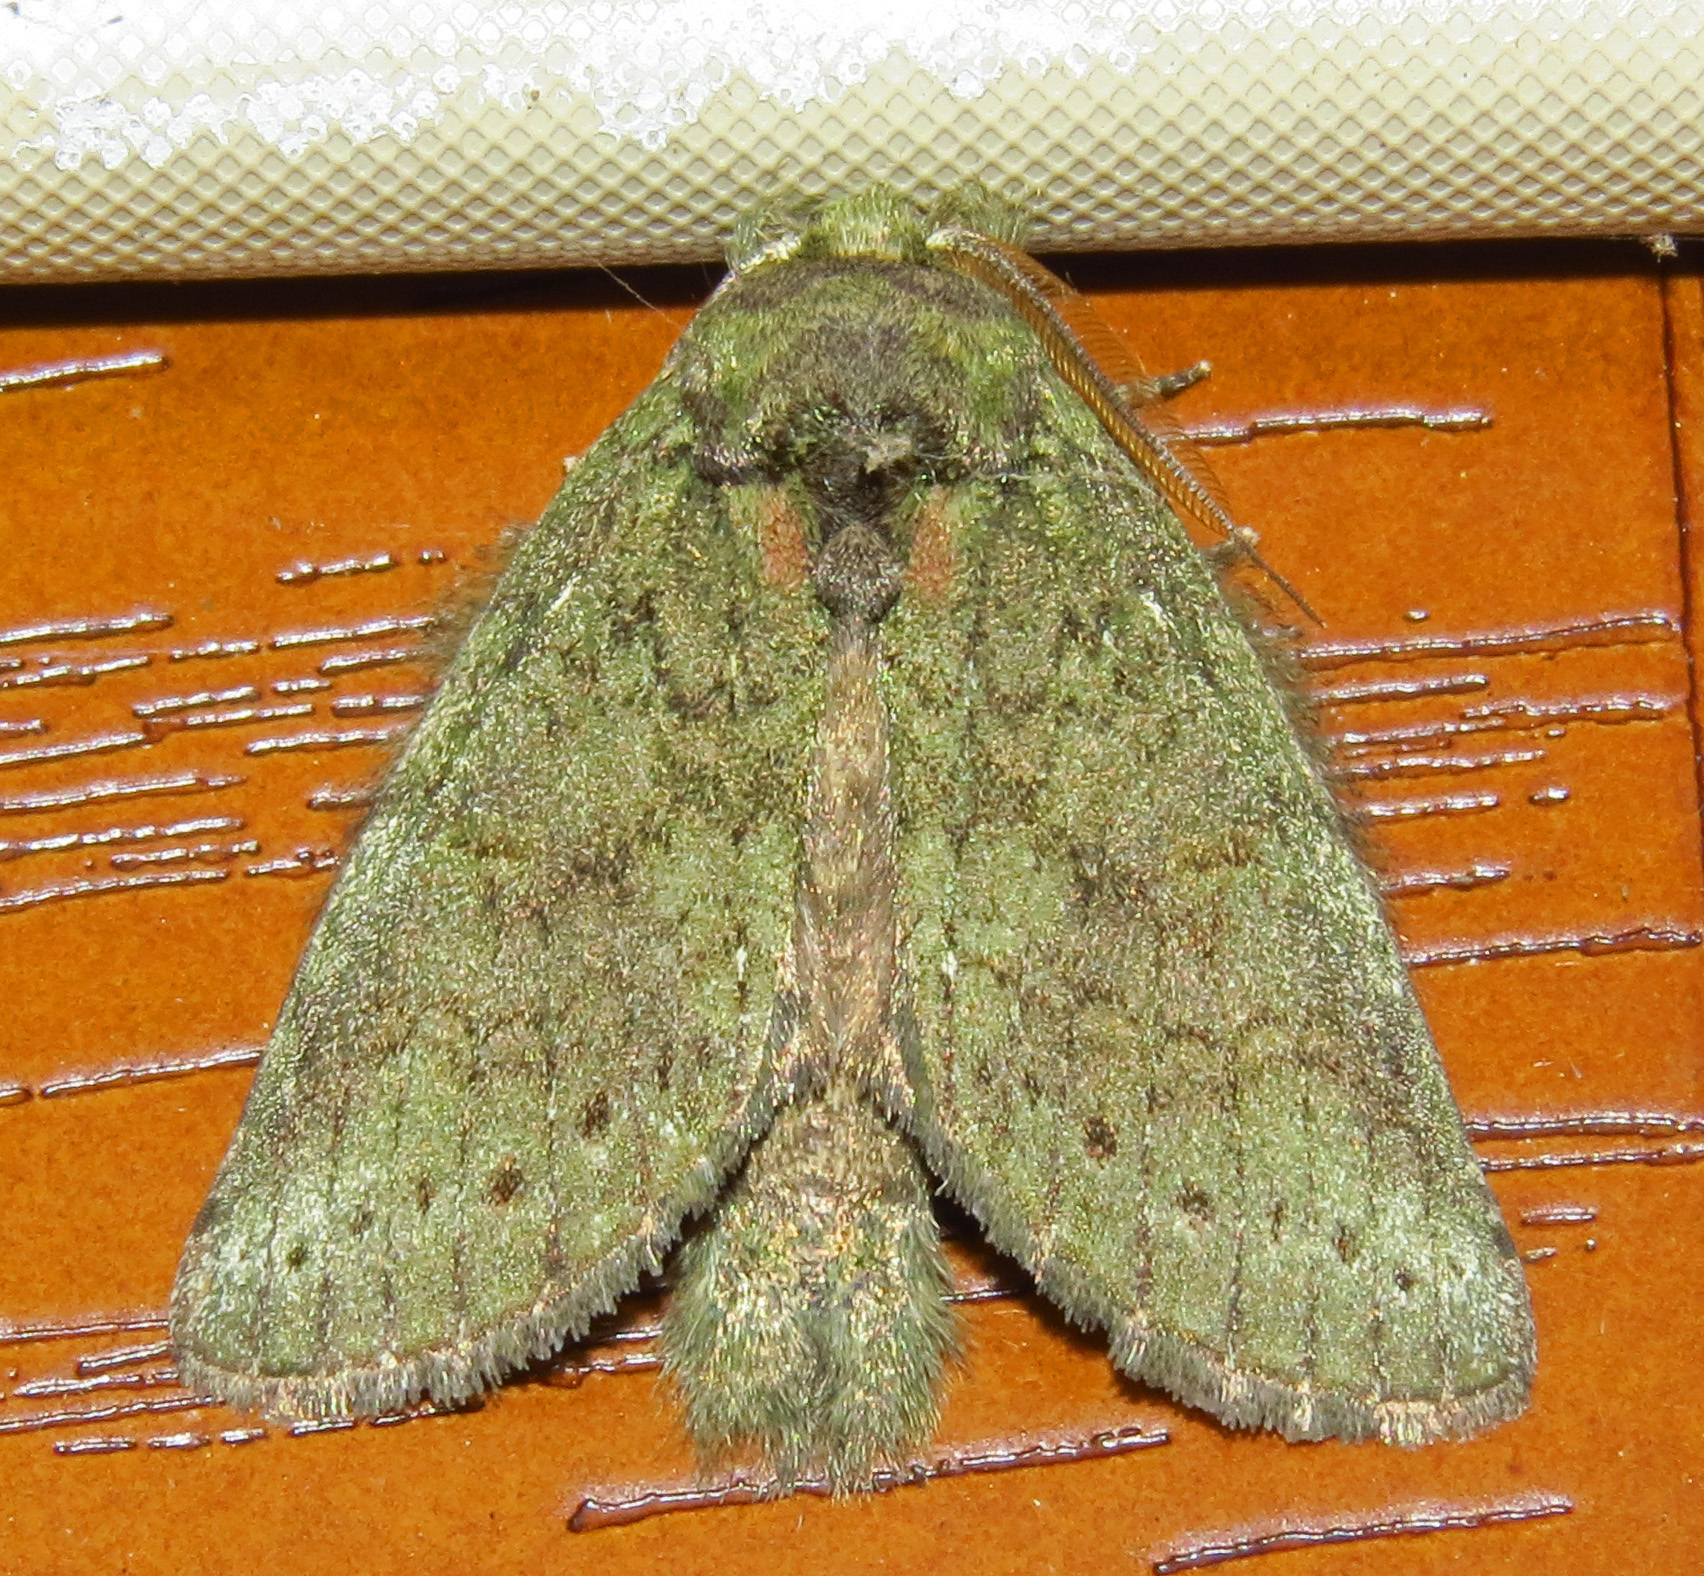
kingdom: Animalia
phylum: Arthropoda
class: Insecta
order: Lepidoptera
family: Notodontidae
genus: Disphragis
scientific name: Disphragis Cecrita guttivitta
